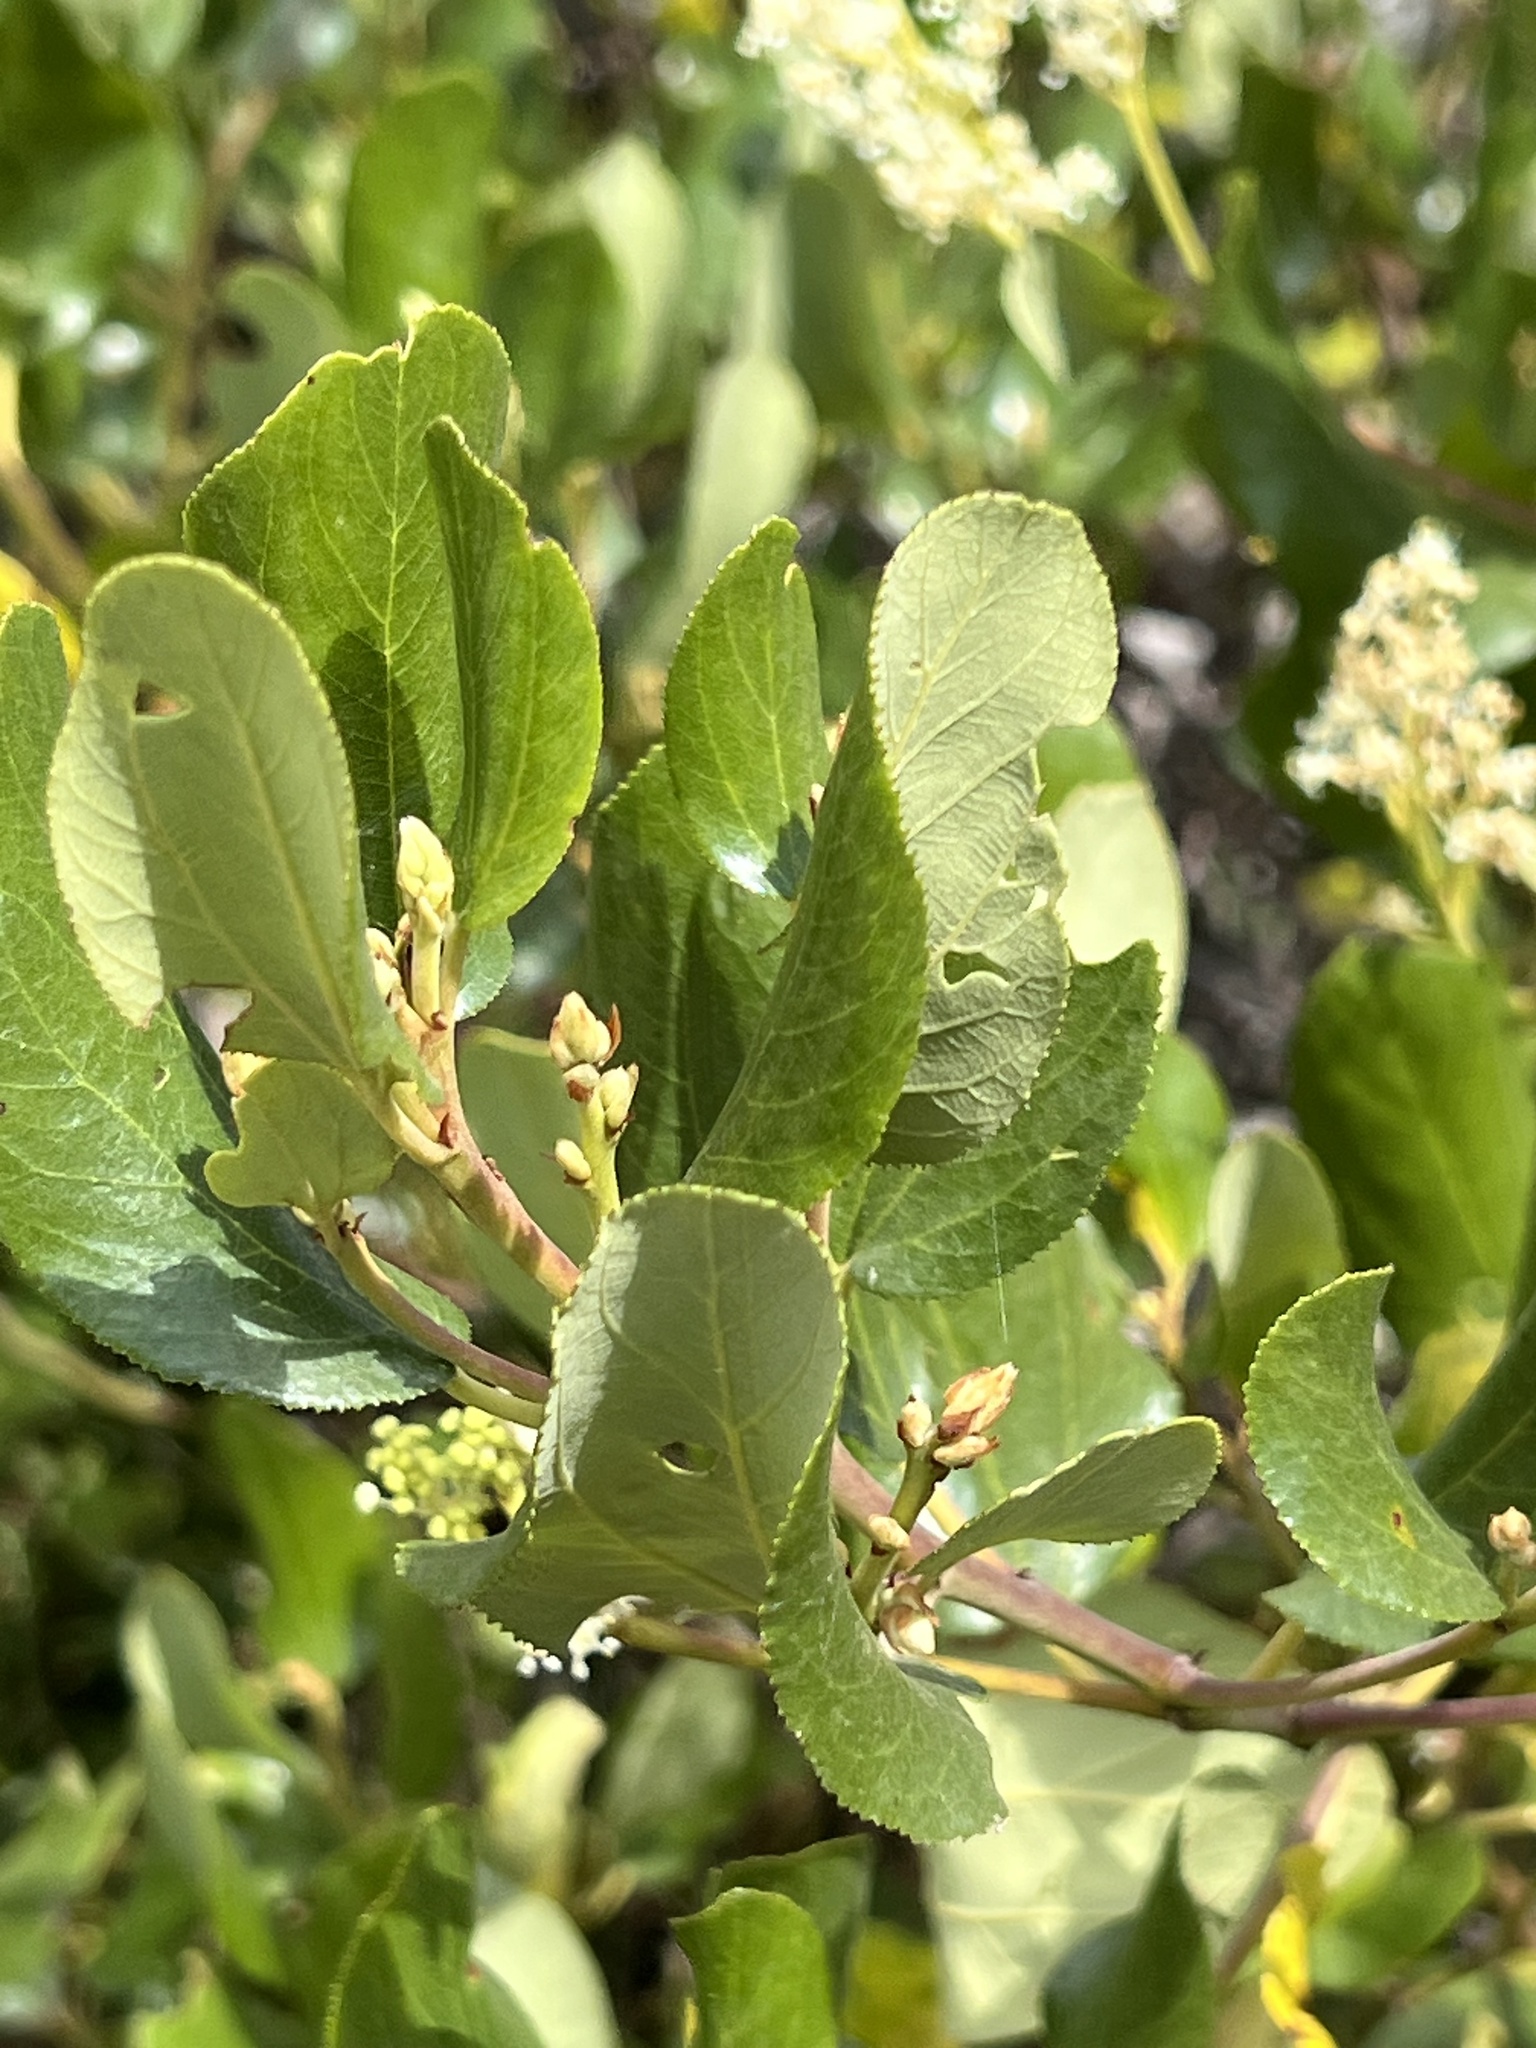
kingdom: Plantae
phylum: Tracheophyta
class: Magnoliopsida
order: Rosales
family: Rhamnaceae
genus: Ceanothus
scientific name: Ceanothus velutinus
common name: Snowbrush
